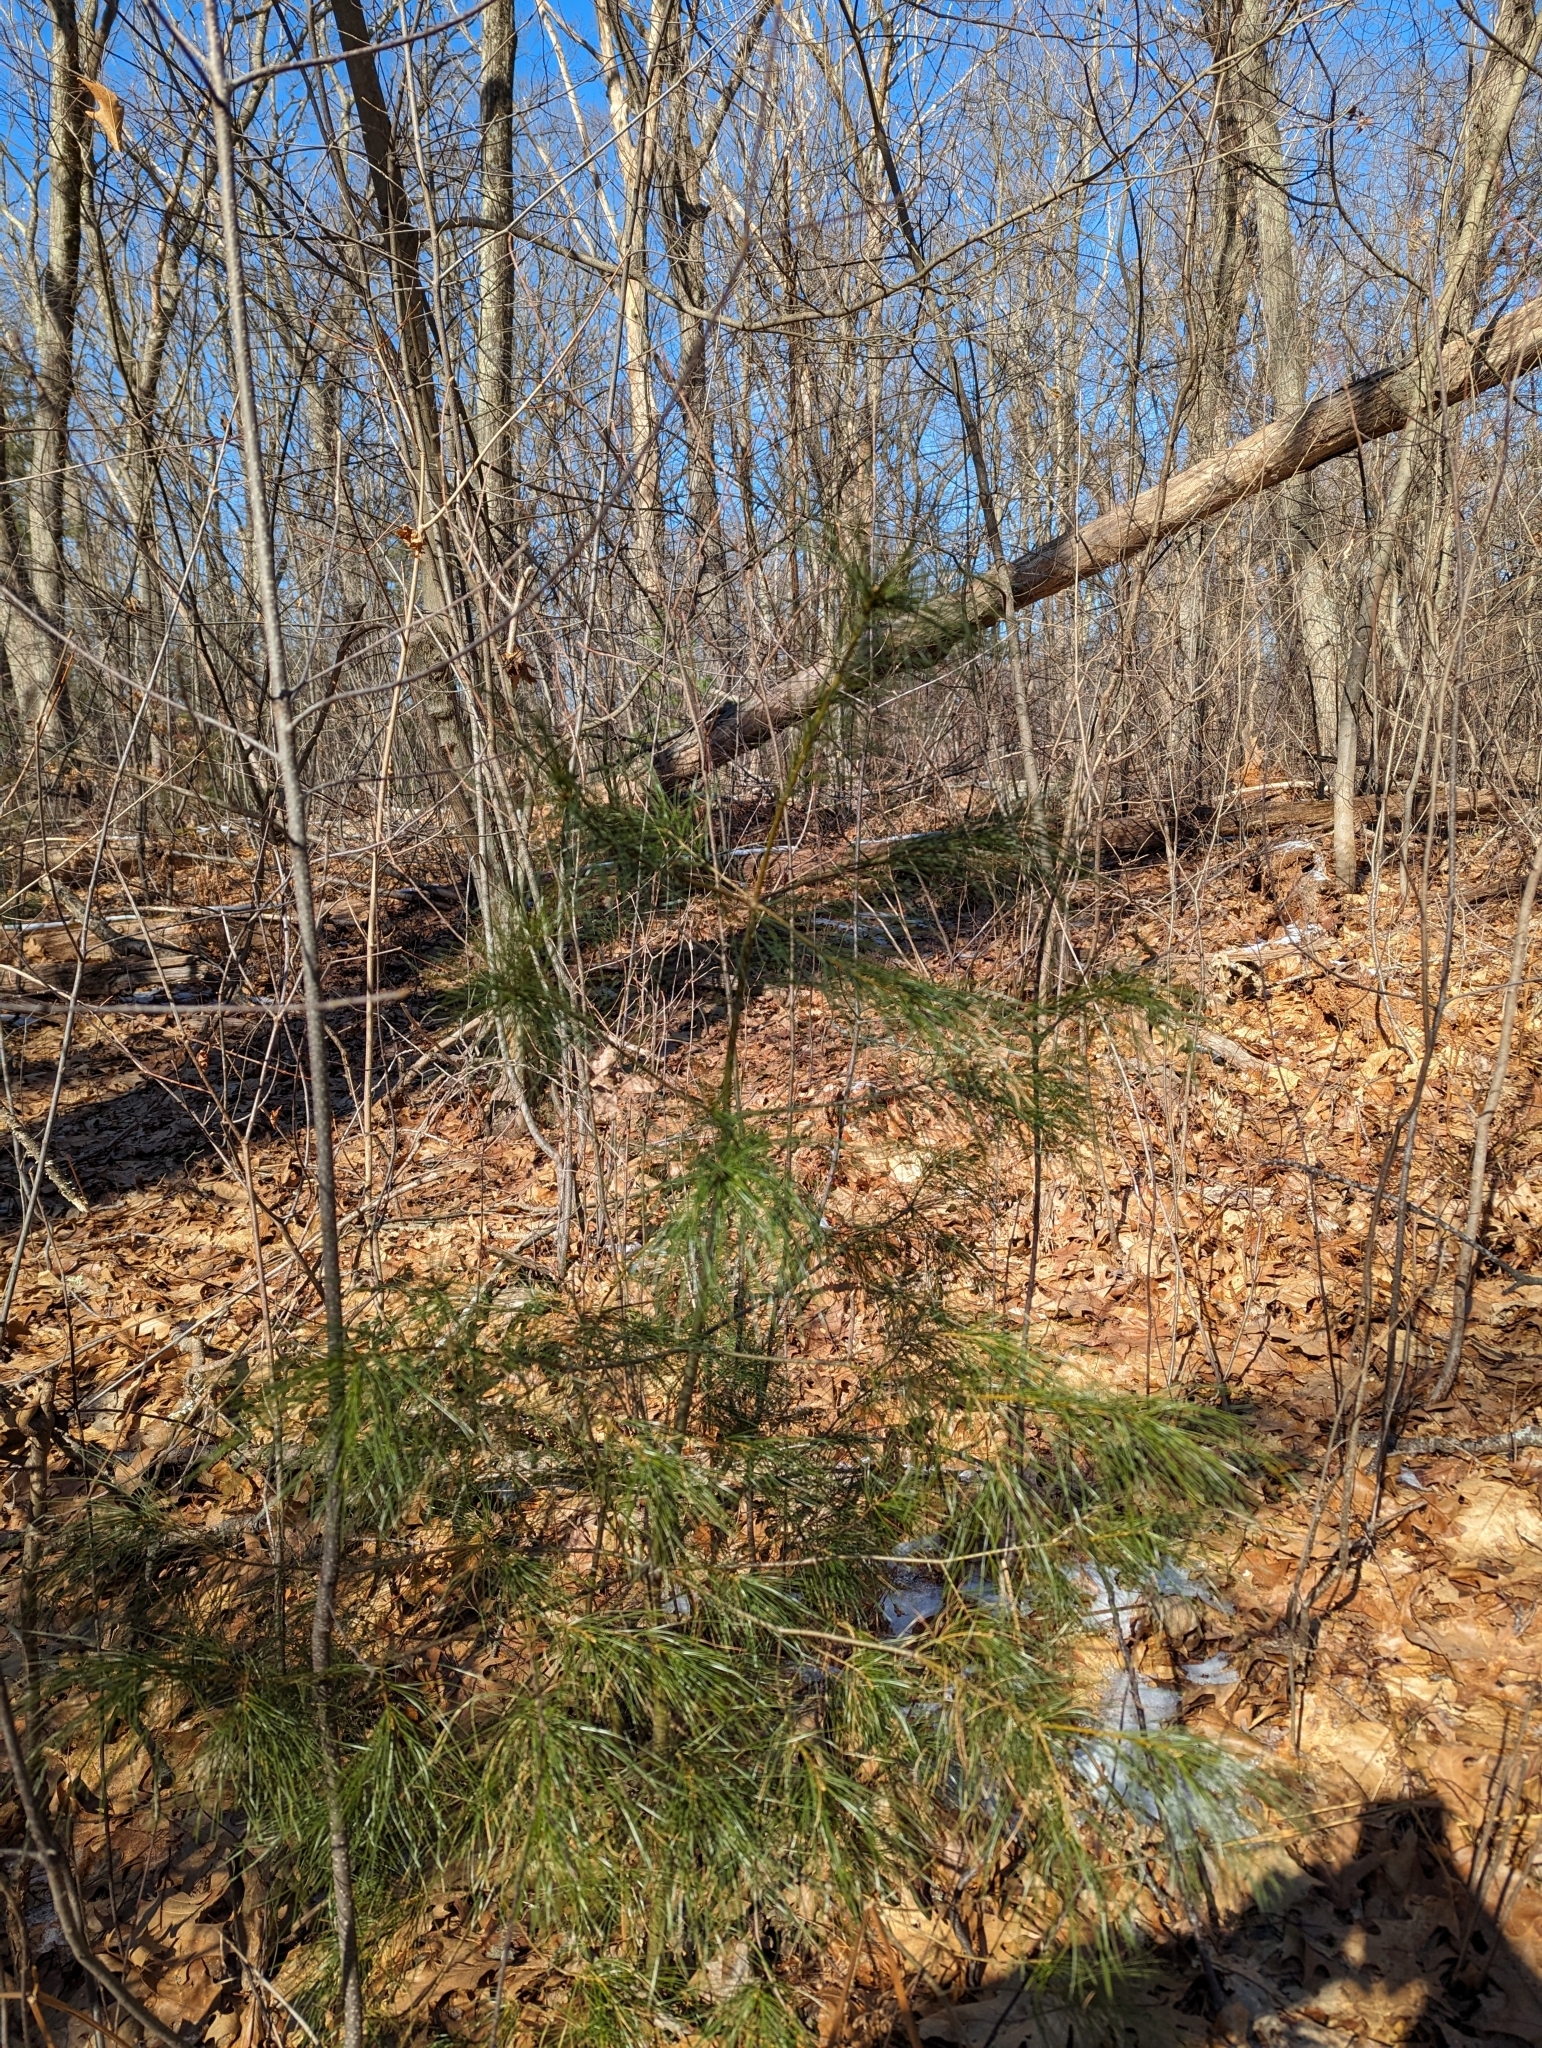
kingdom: Plantae
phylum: Tracheophyta
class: Pinopsida
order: Pinales
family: Pinaceae
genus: Pinus
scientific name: Pinus strobus
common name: Weymouth pine
